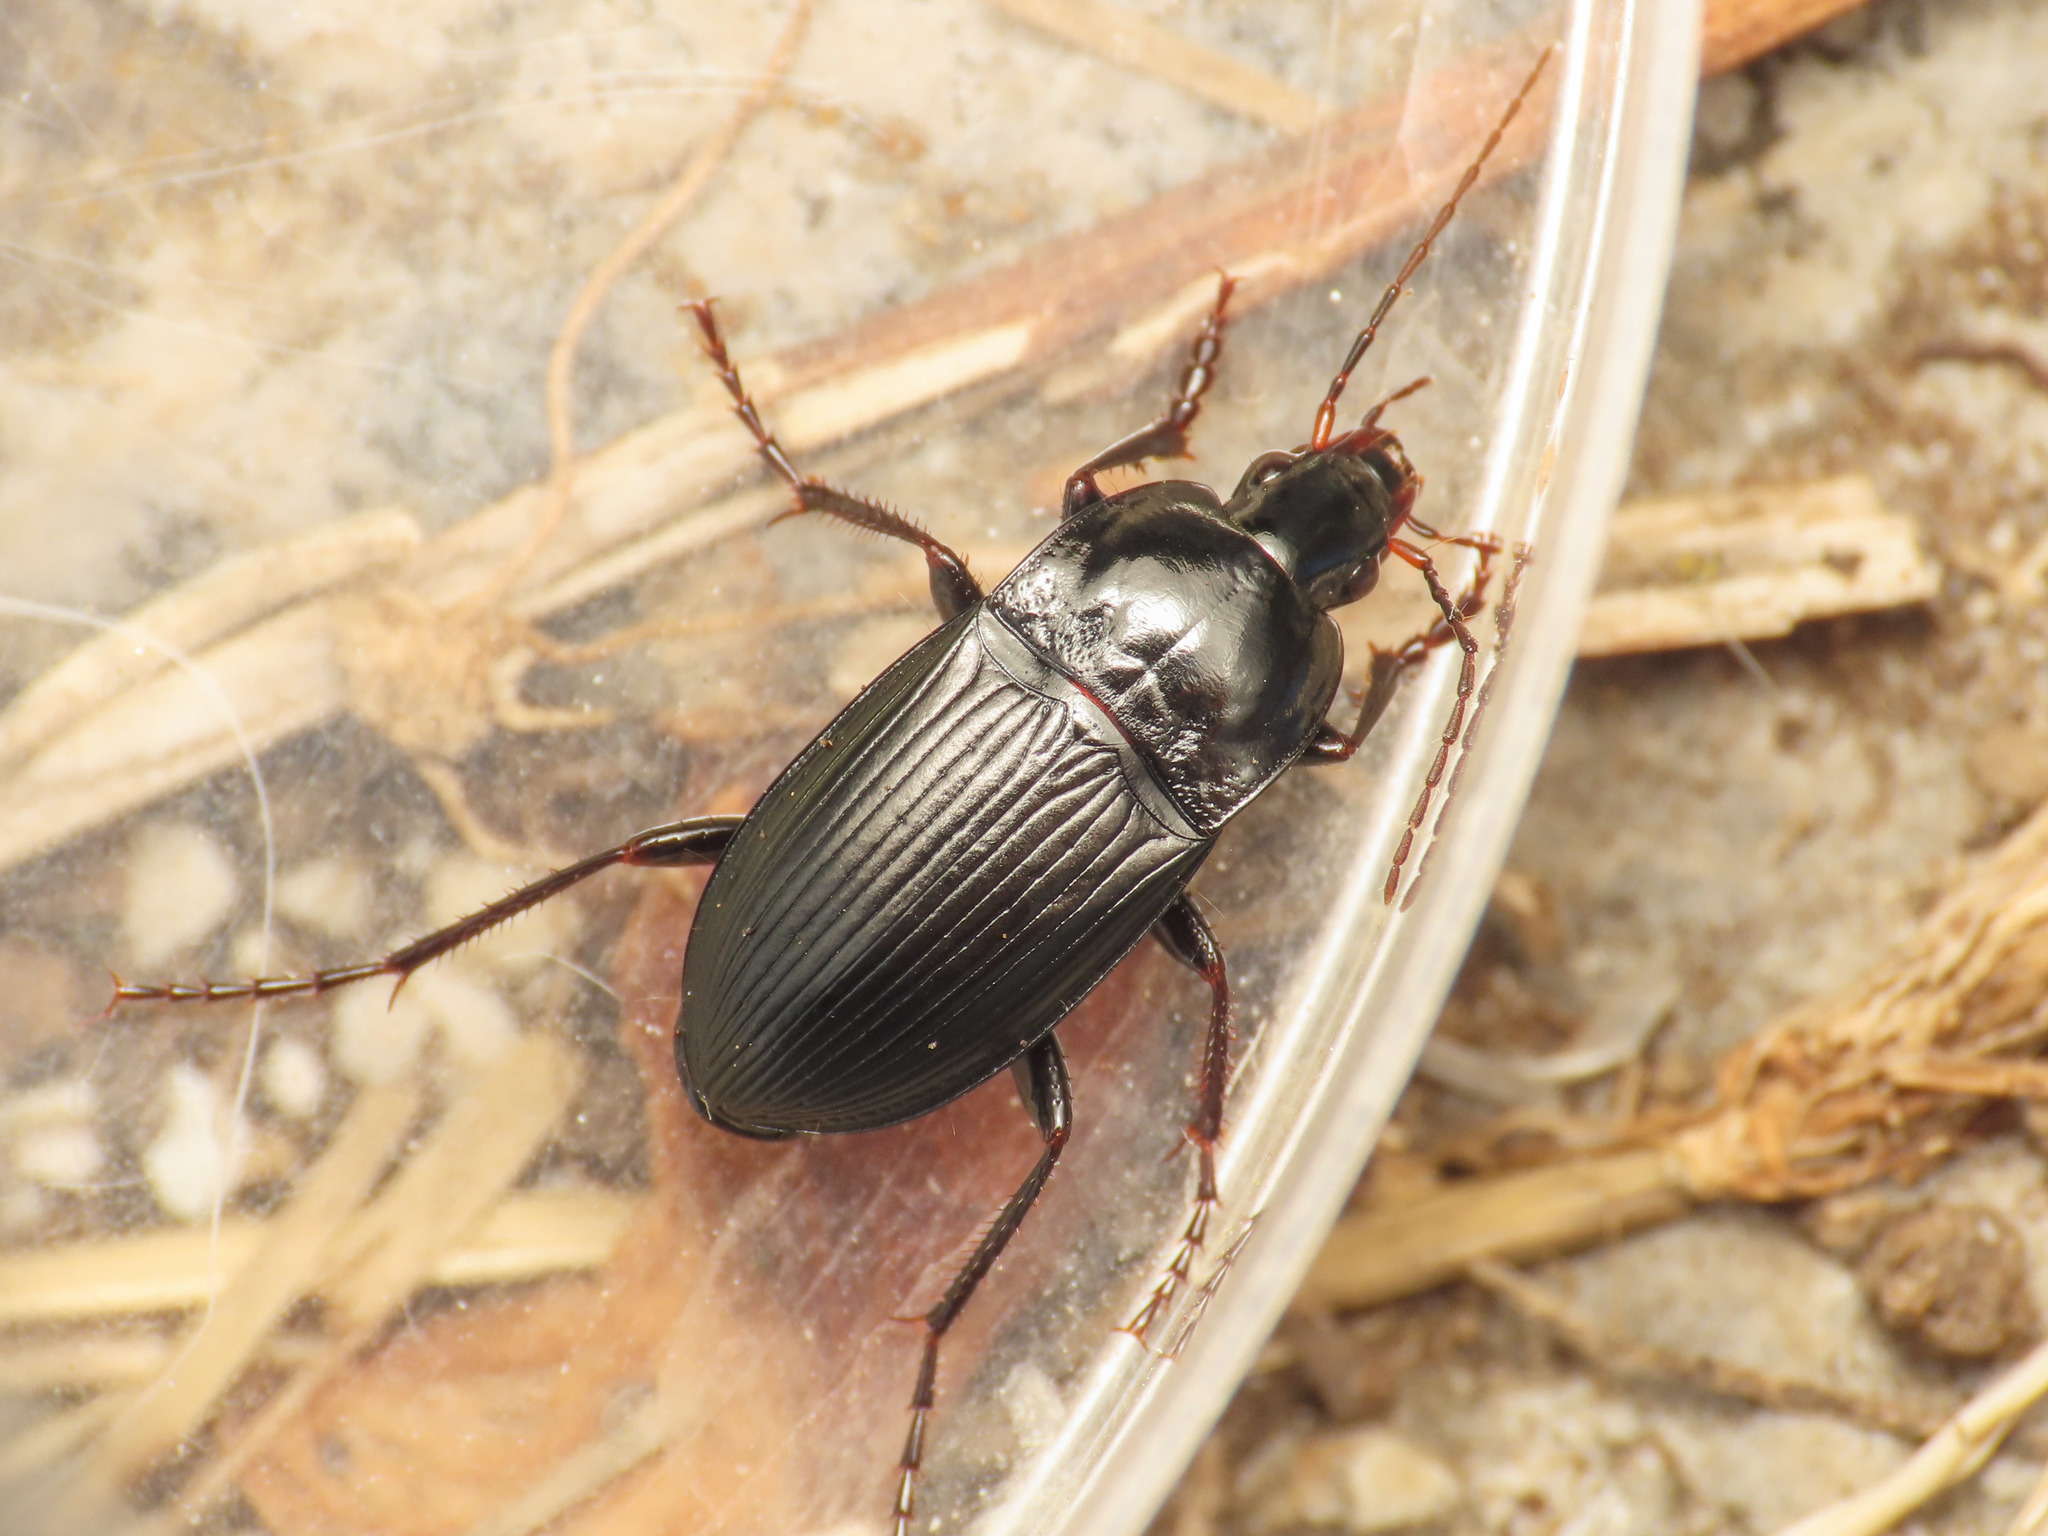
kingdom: Animalia
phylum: Arthropoda
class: Insecta
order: Coleoptera
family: Carabidae
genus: Calathus
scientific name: Calathus fracassii
